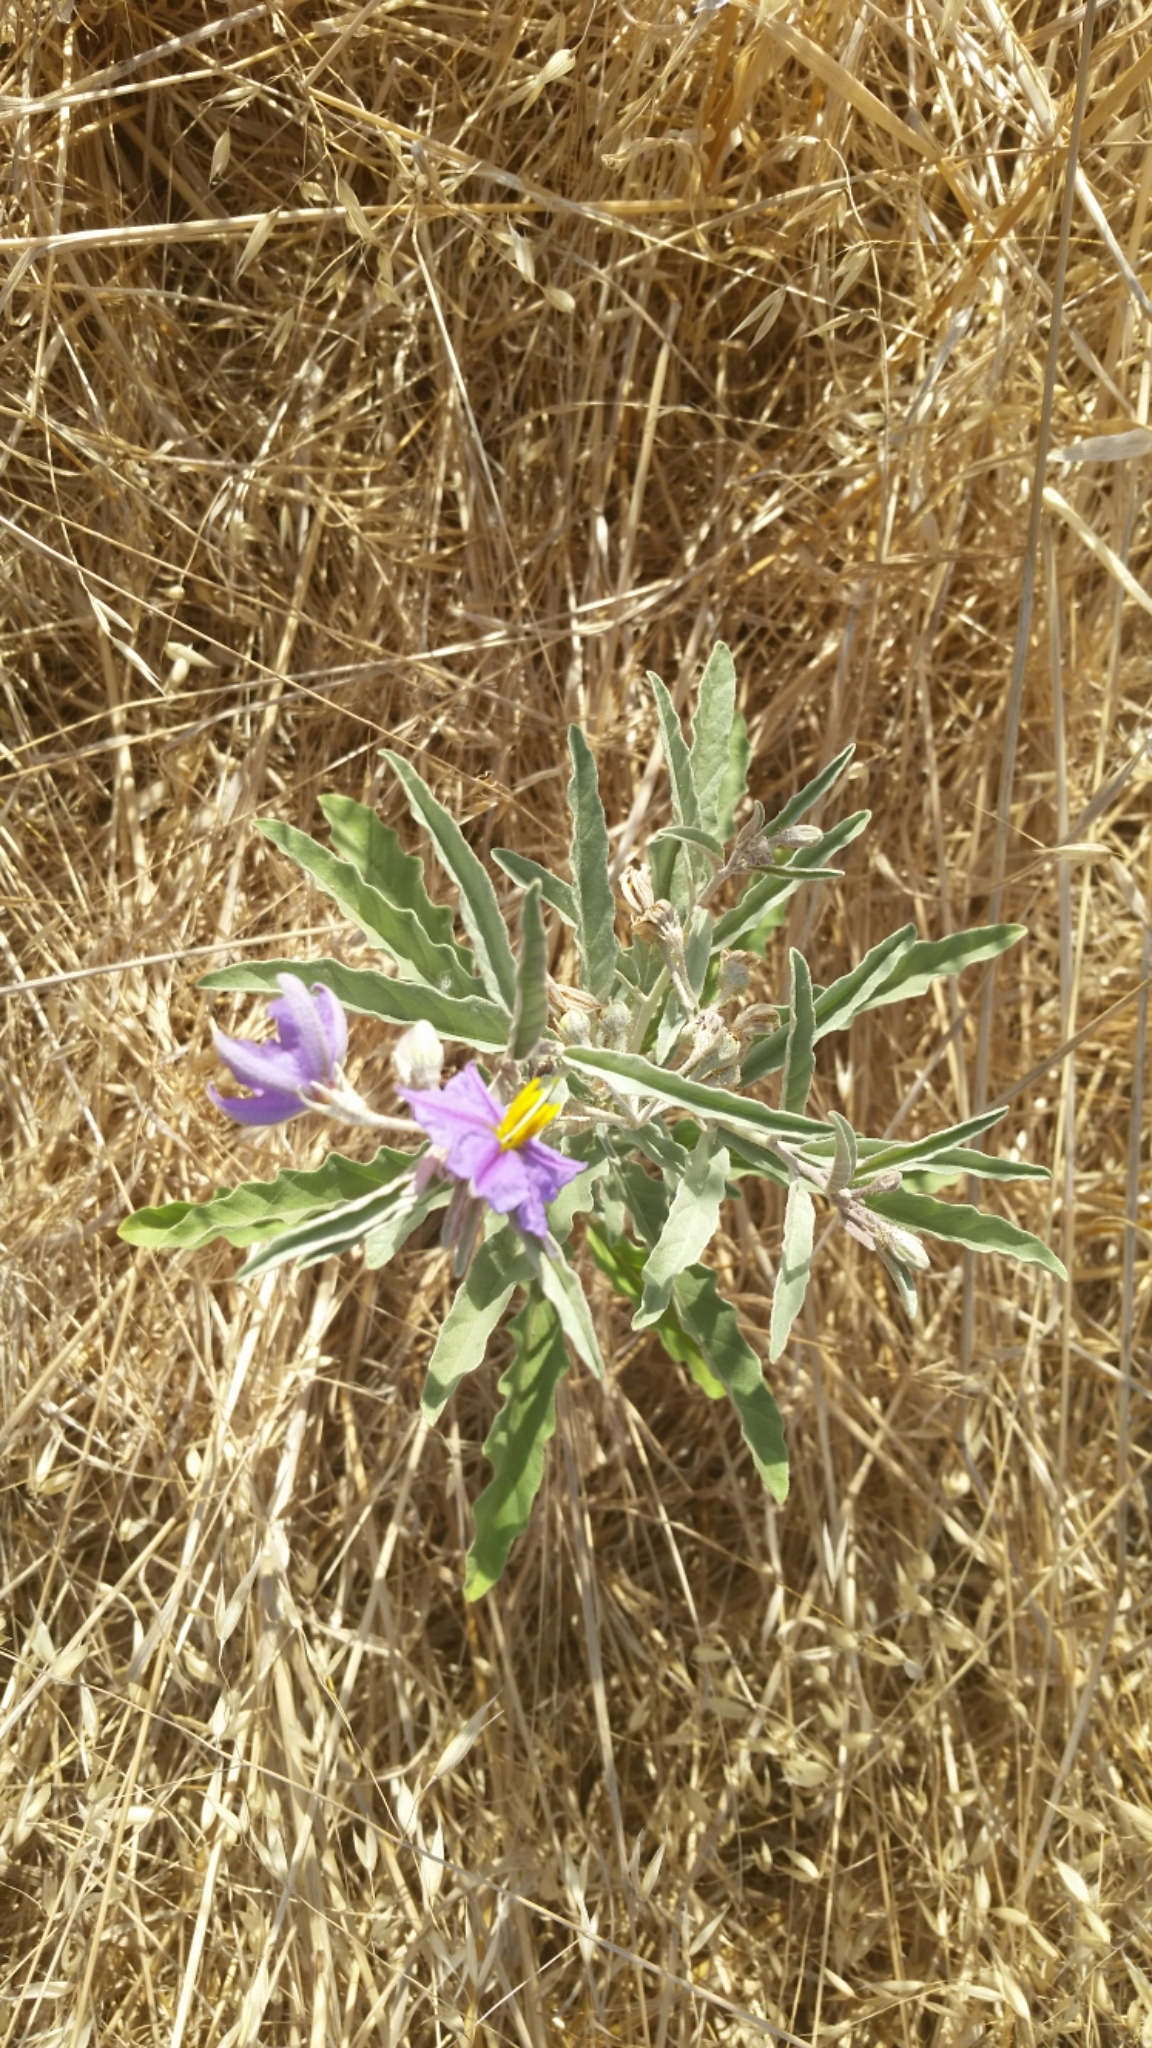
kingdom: Plantae
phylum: Tracheophyta
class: Magnoliopsida
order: Solanales
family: Solanaceae
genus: Solanum
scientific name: Solanum elaeagnifolium
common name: Silverleaf nightshade
